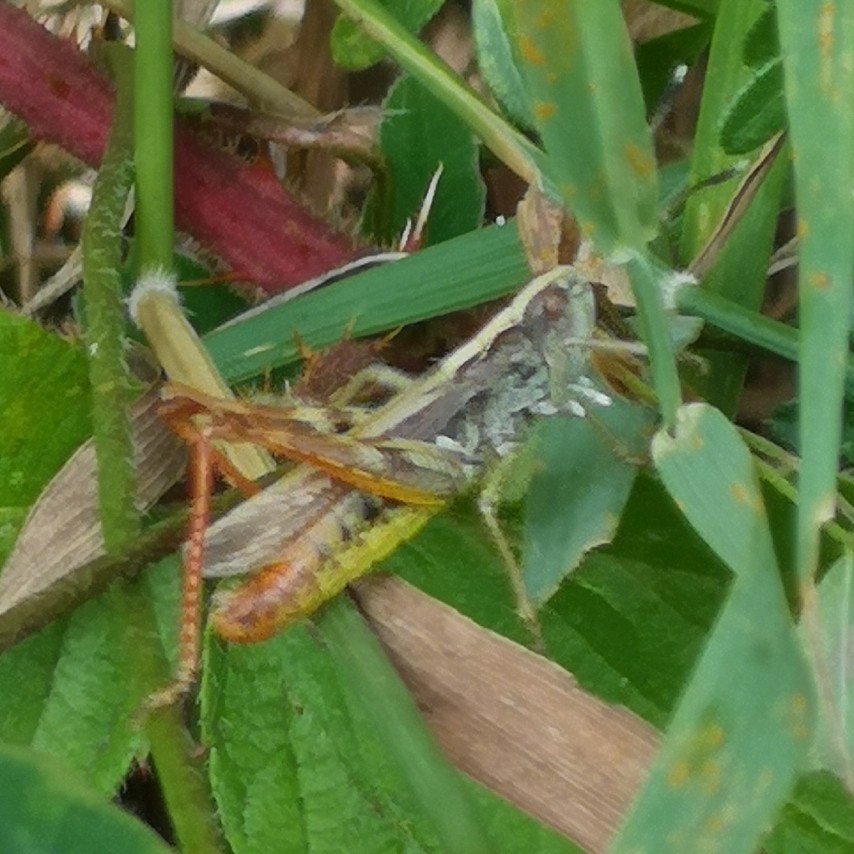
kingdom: Animalia
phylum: Arthropoda
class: Insecta
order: Orthoptera
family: Acrididae
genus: Gomphocerippus
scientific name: Gomphocerippus rufus
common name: Rufous grasshopper
